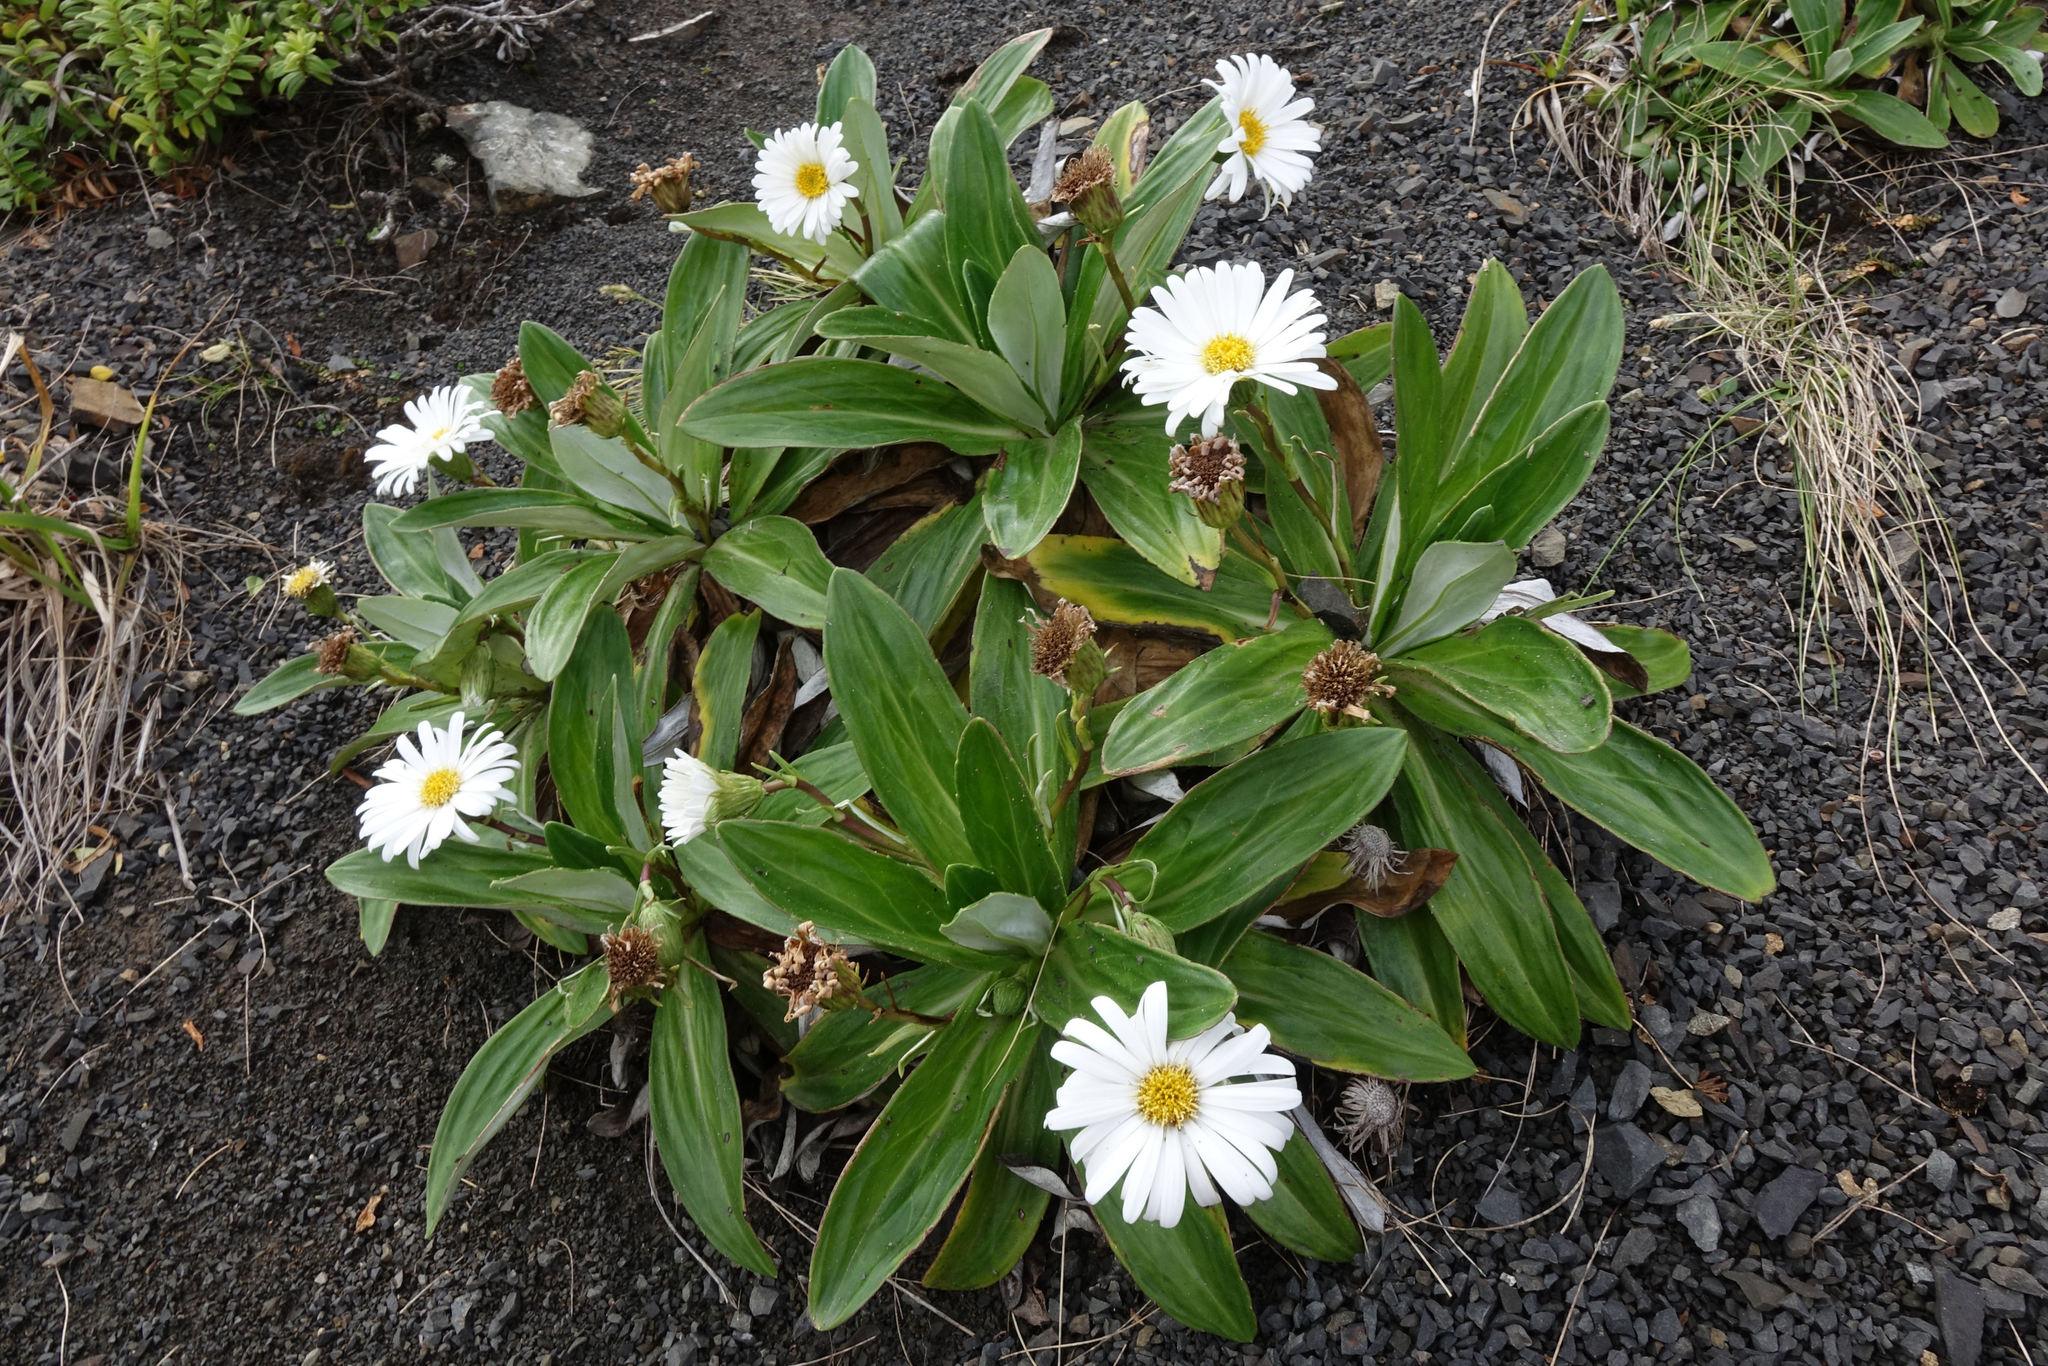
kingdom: Plantae
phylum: Tracheophyta
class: Magnoliopsida
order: Asterales
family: Asteraceae
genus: Celmisia
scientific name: Celmisia lindsayi
